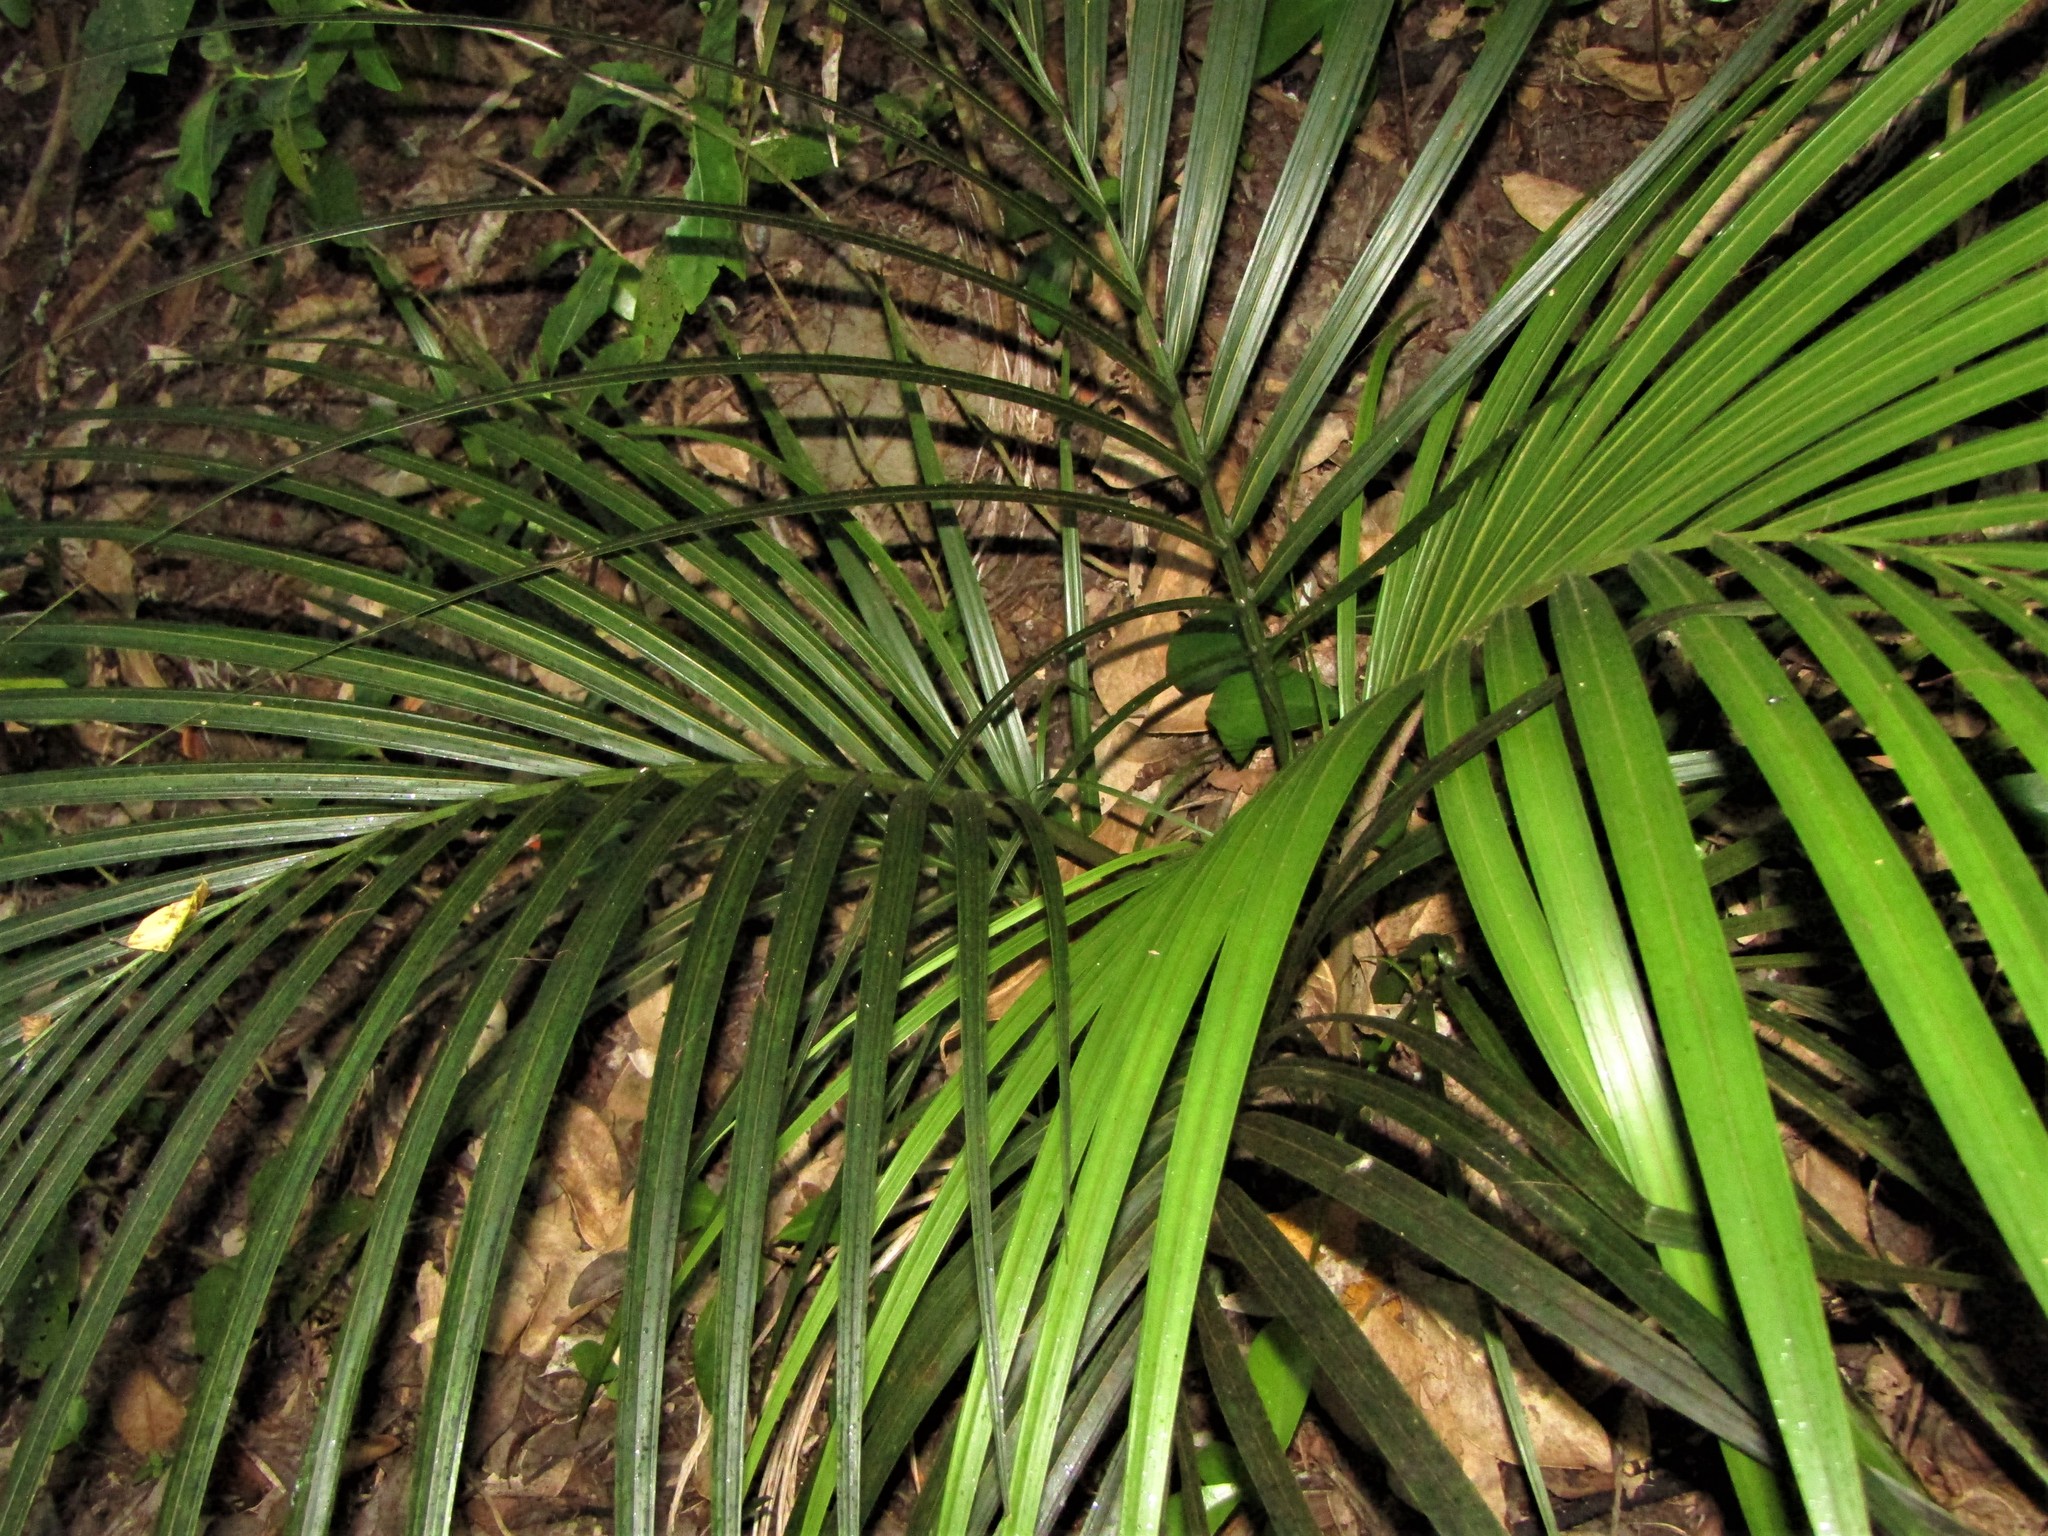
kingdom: Plantae
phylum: Tracheophyta
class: Liliopsida
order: Arecales
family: Arecaceae
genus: Rhopalostylis
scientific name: Rhopalostylis sapida
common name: Feather-duster palm
